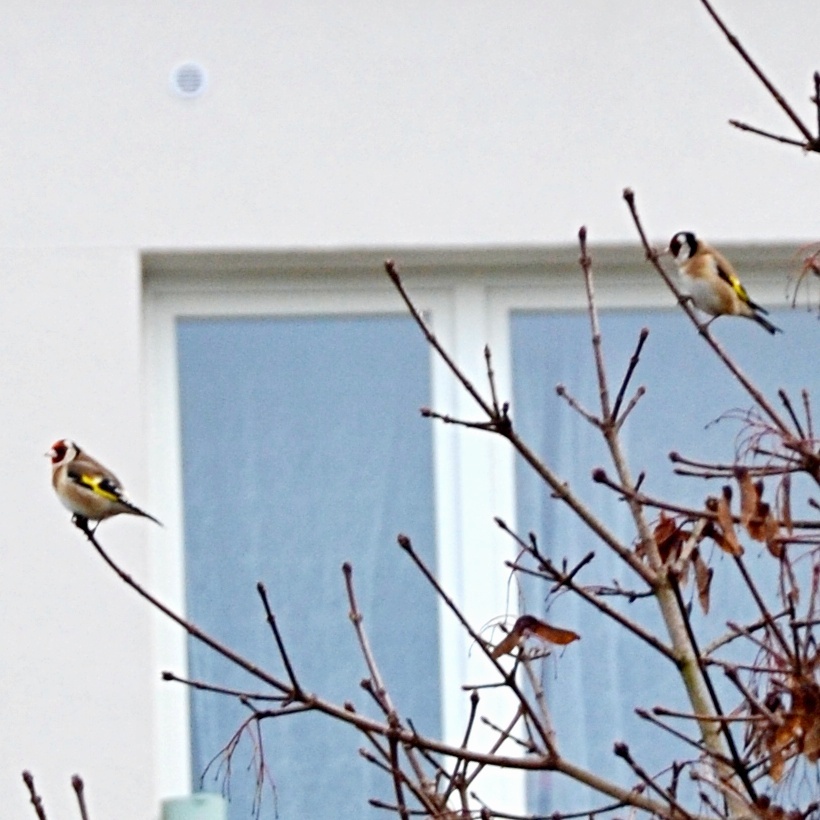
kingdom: Animalia
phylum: Chordata
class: Aves
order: Passeriformes
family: Fringillidae
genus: Carduelis
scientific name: Carduelis carduelis
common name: European goldfinch
